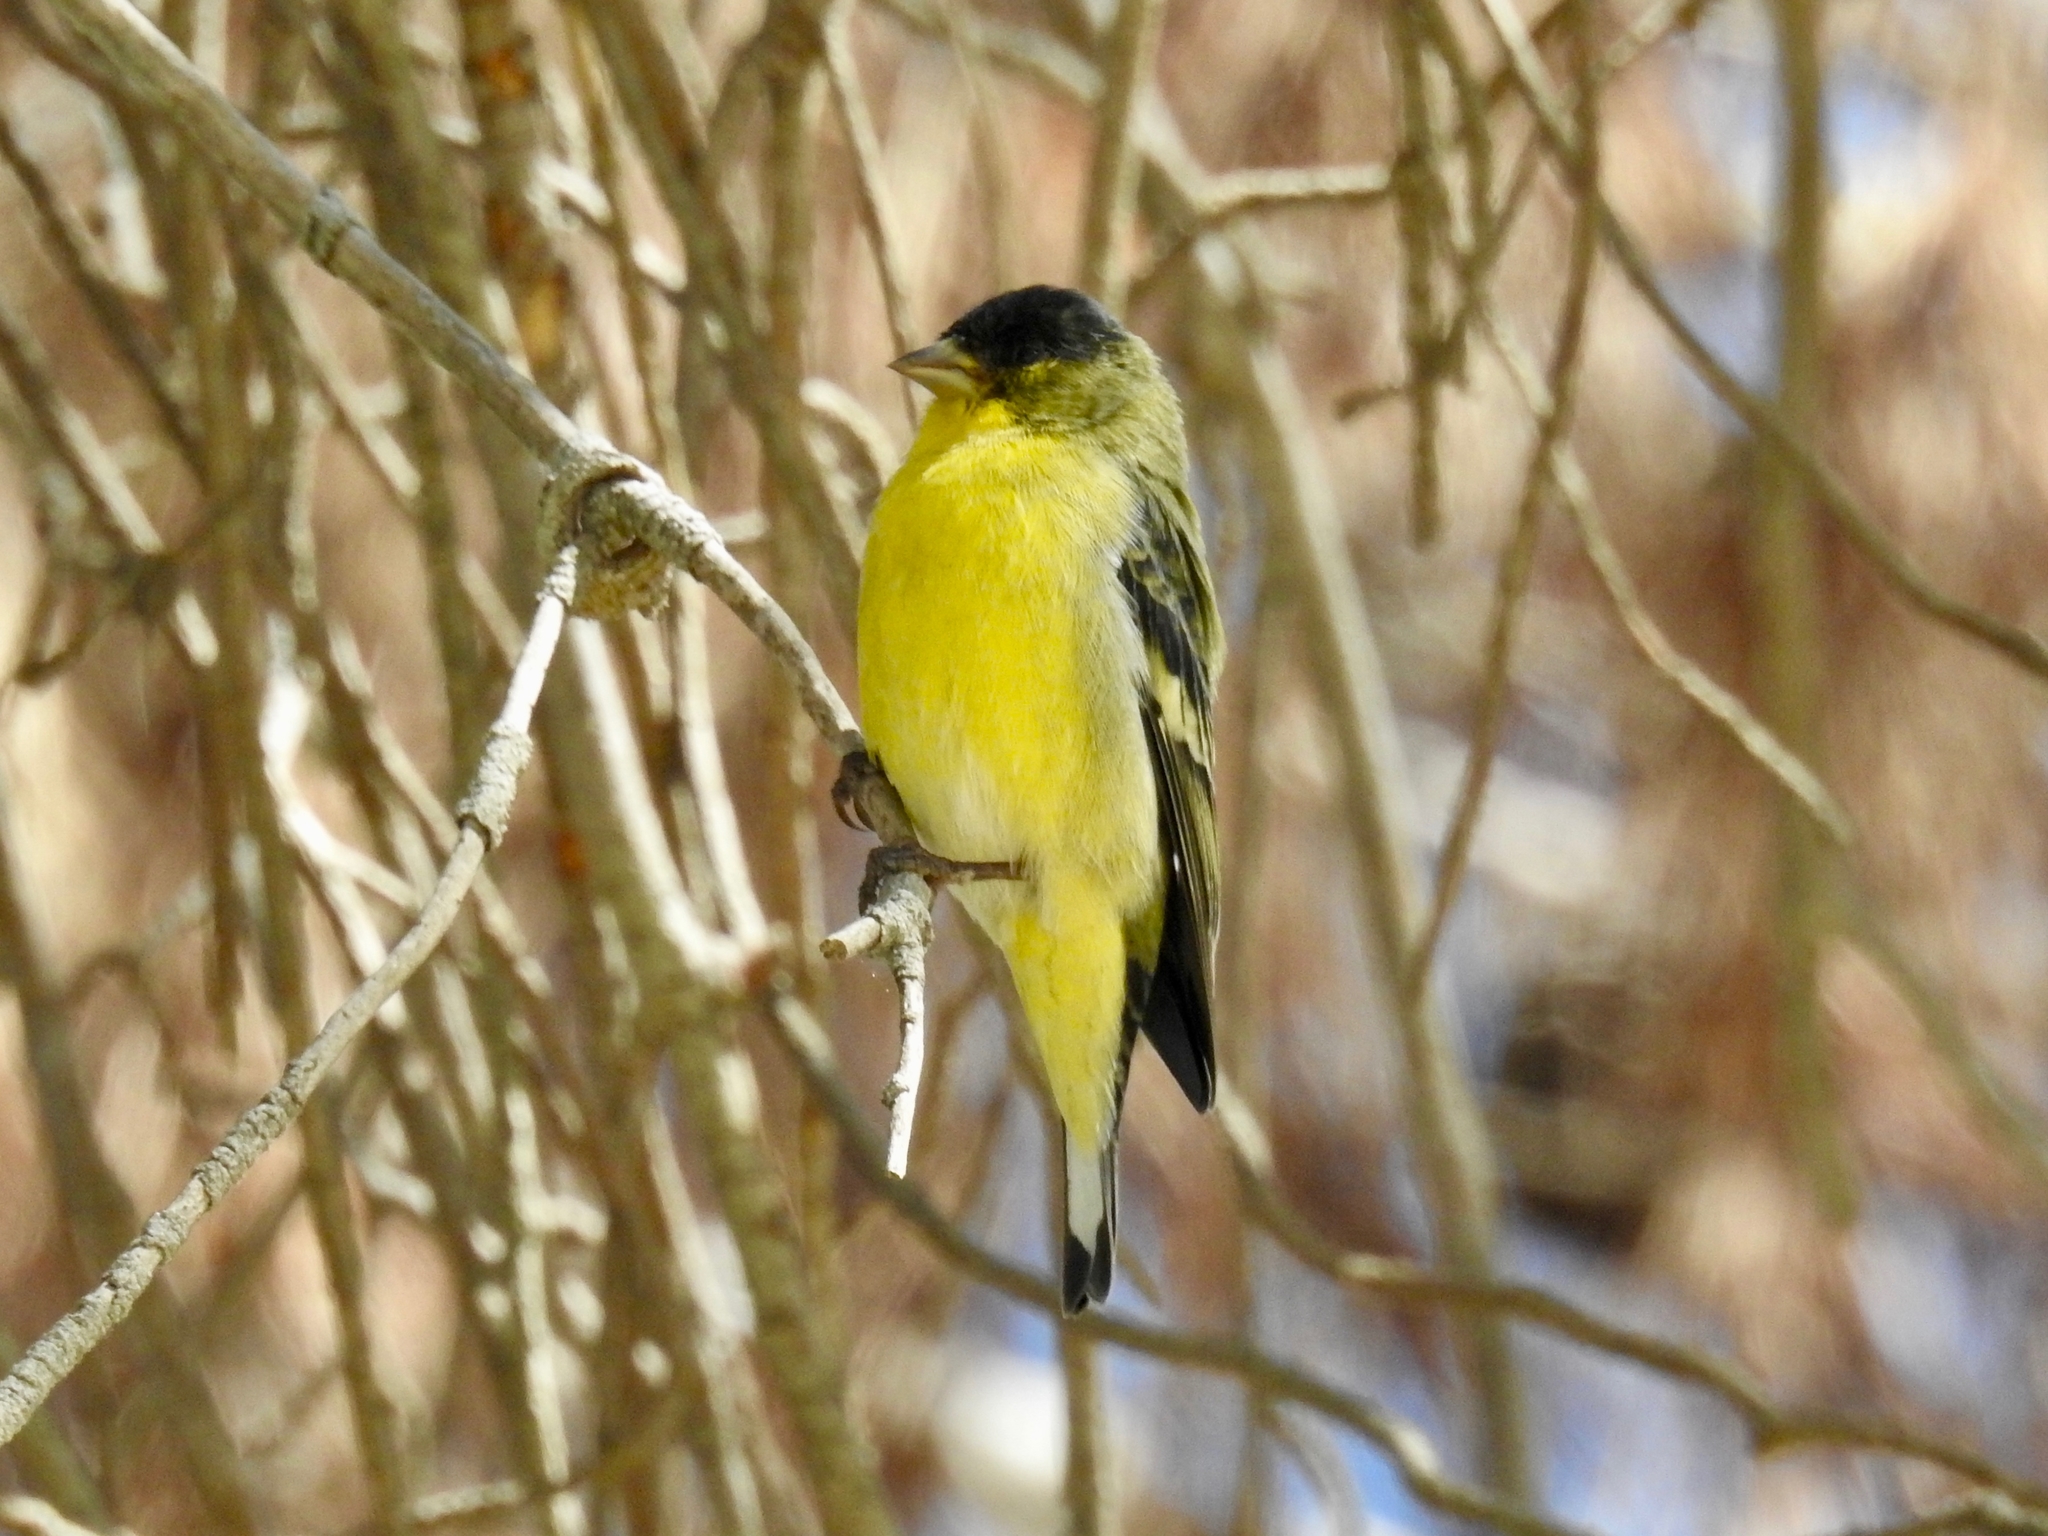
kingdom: Animalia
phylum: Chordata
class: Aves
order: Passeriformes
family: Fringillidae
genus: Spinus
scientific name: Spinus psaltria
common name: Lesser goldfinch
